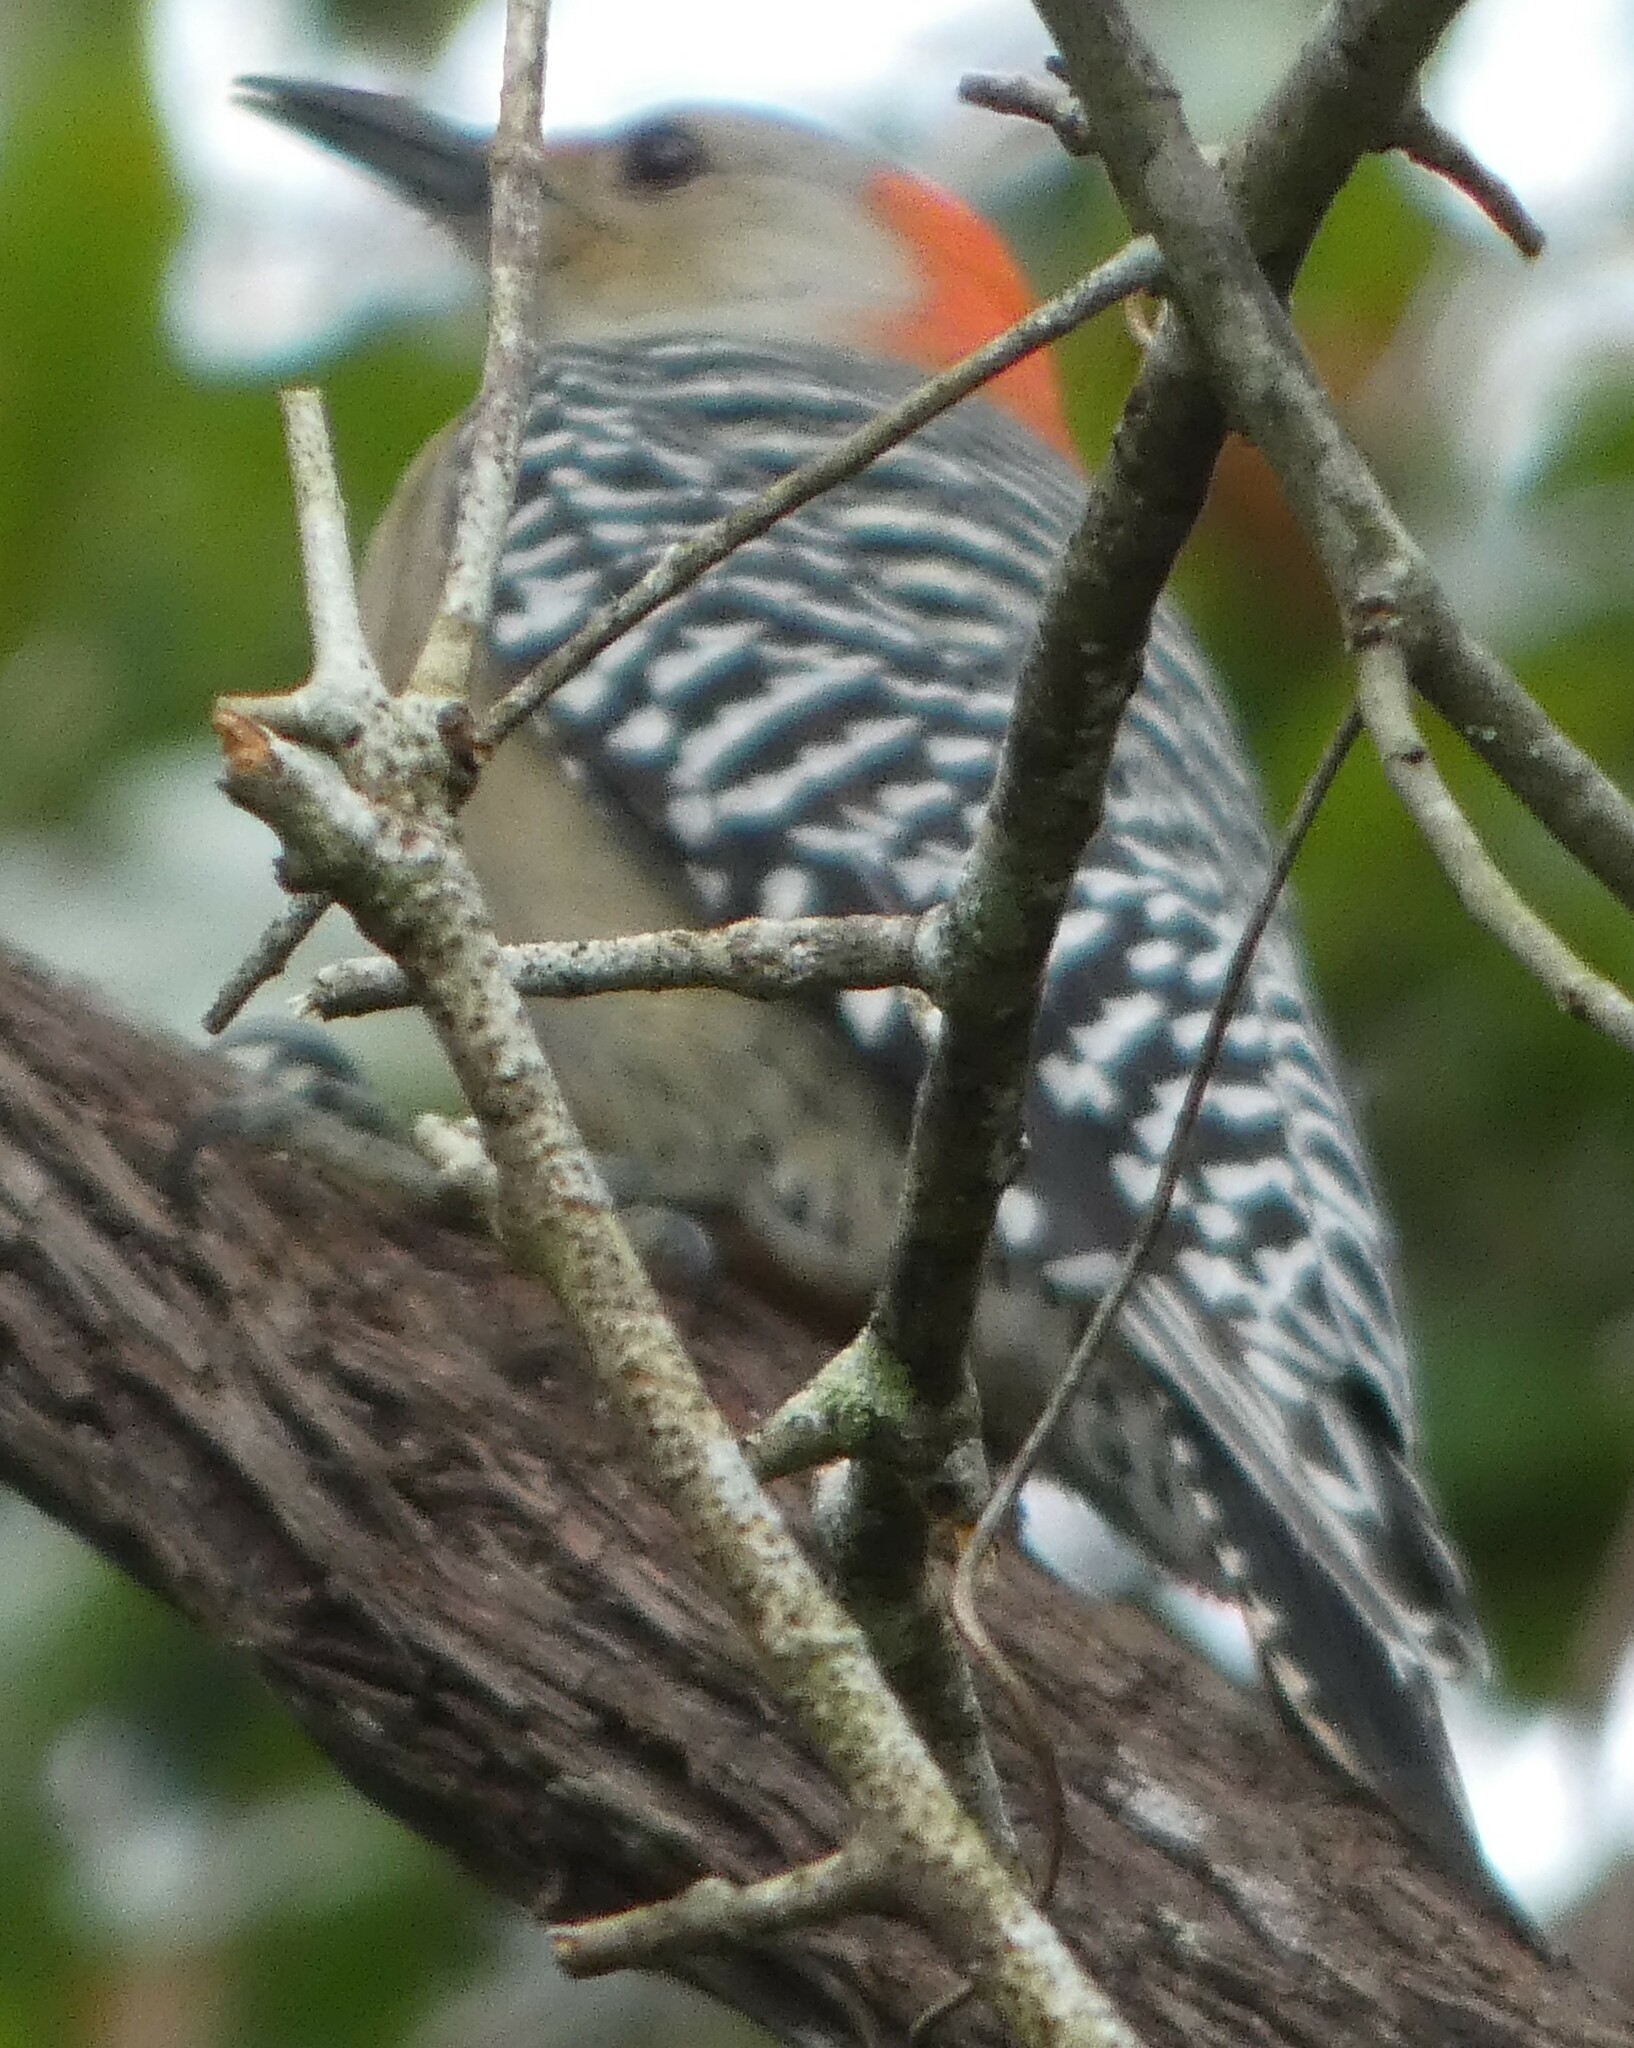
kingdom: Animalia
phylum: Chordata
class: Aves
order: Piciformes
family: Picidae
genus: Melanerpes
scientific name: Melanerpes carolinus
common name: Red-bellied woodpecker
